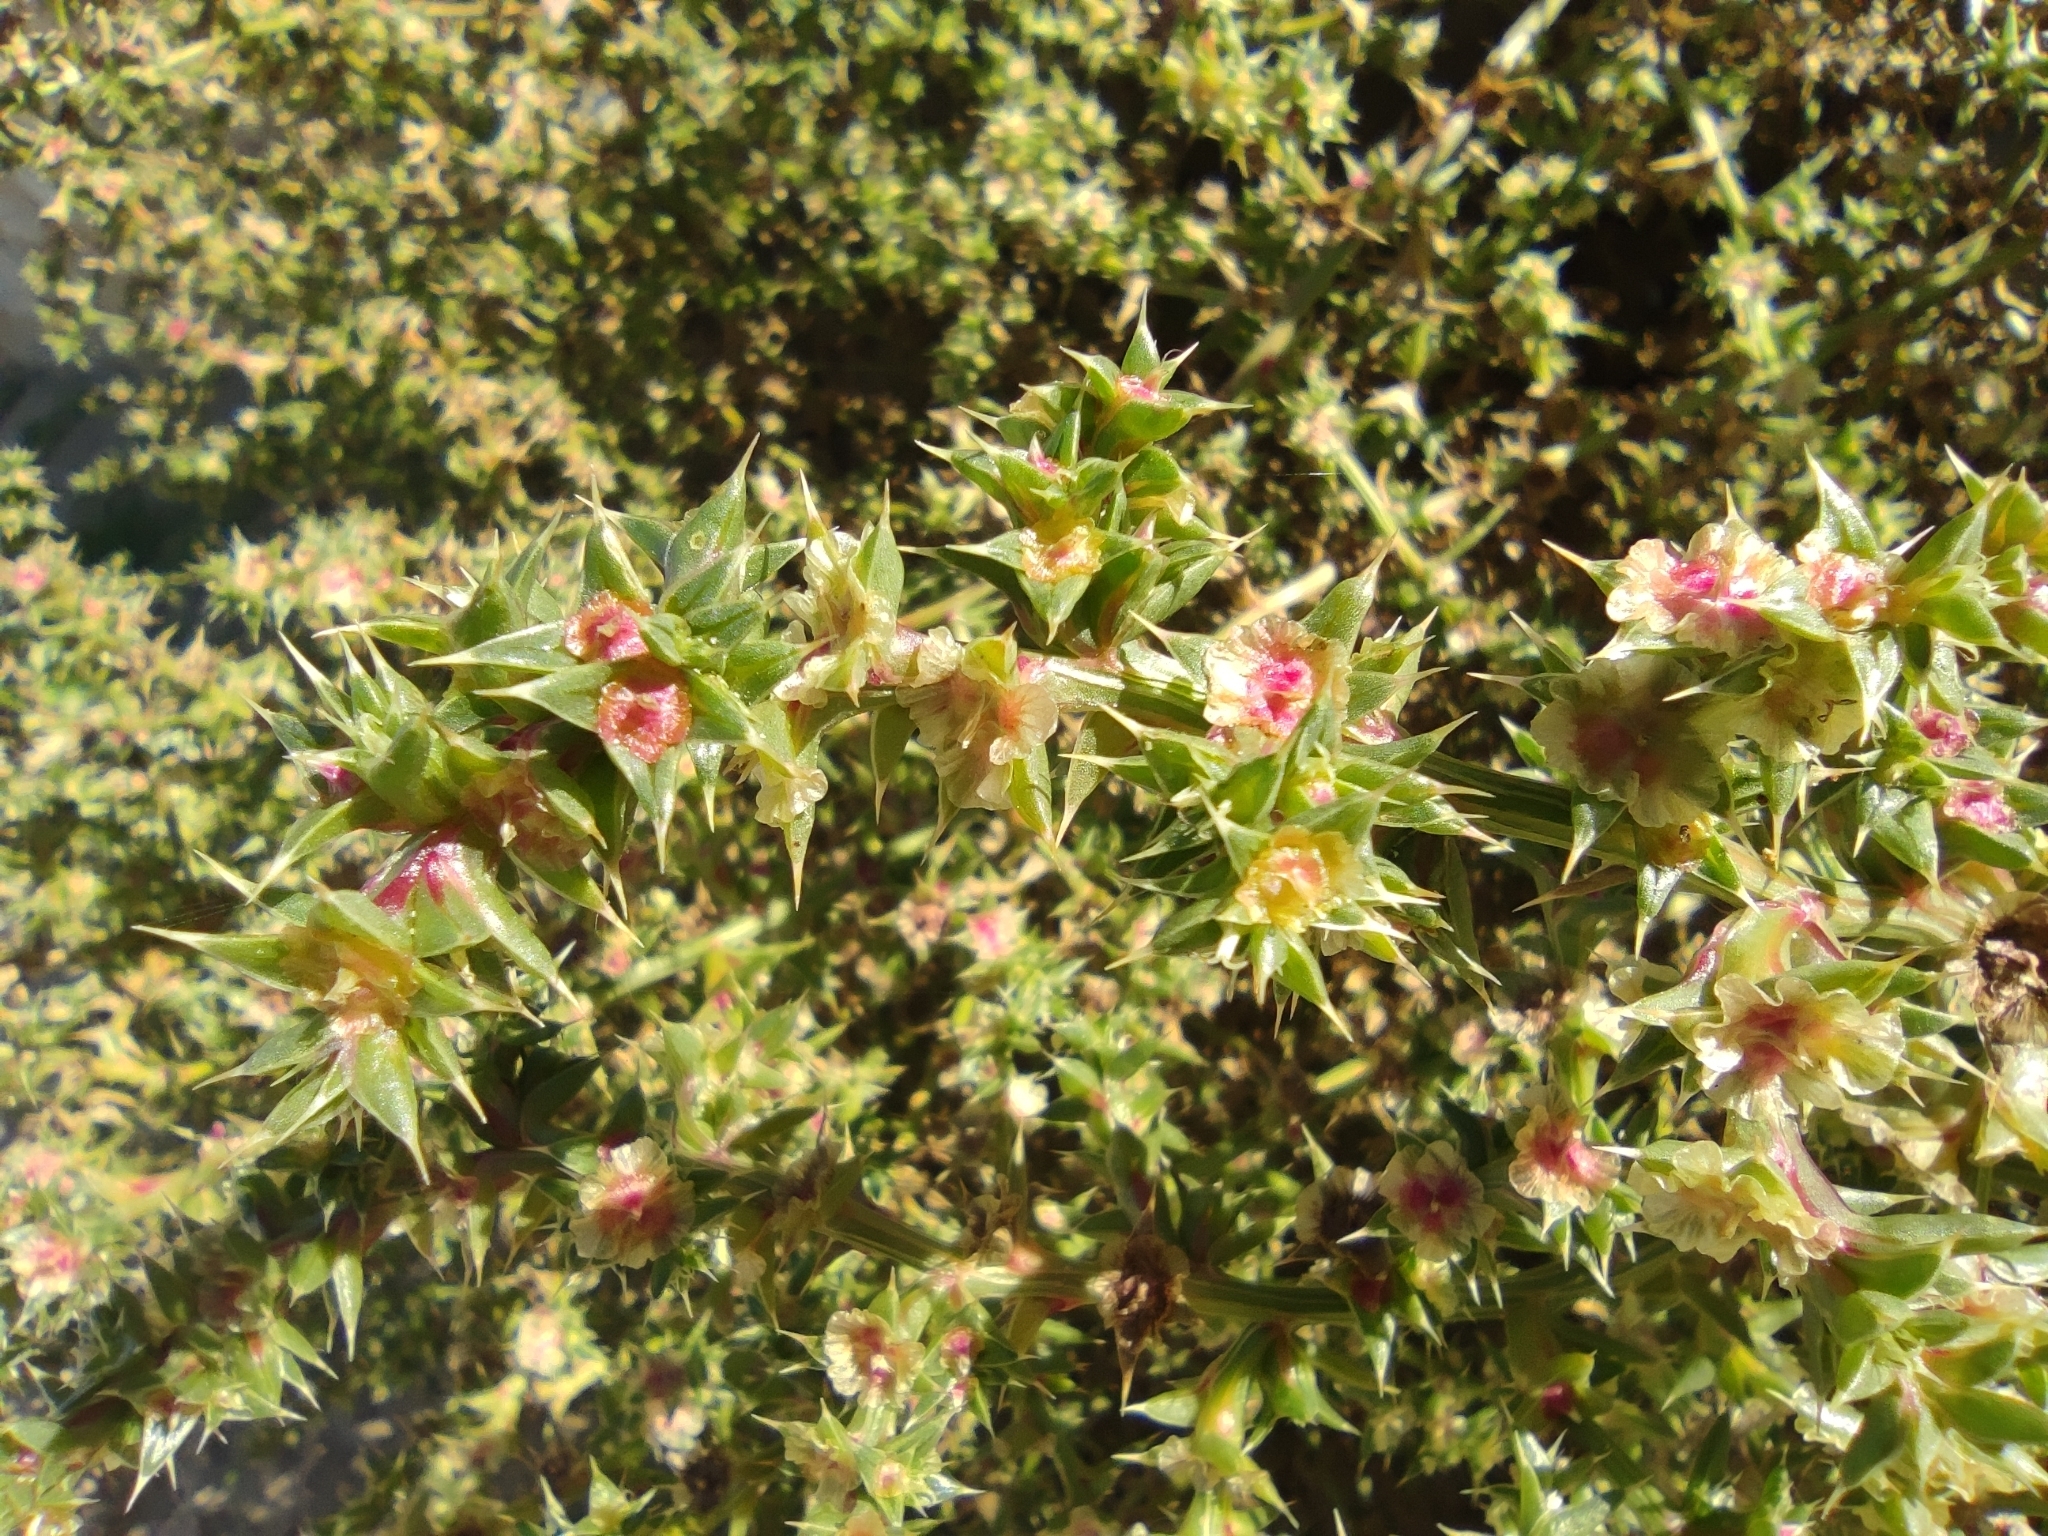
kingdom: Plantae
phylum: Tracheophyta
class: Magnoliopsida
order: Caryophyllales
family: Amaranthaceae
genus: Salsola
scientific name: Salsola kali
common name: Saltwort
